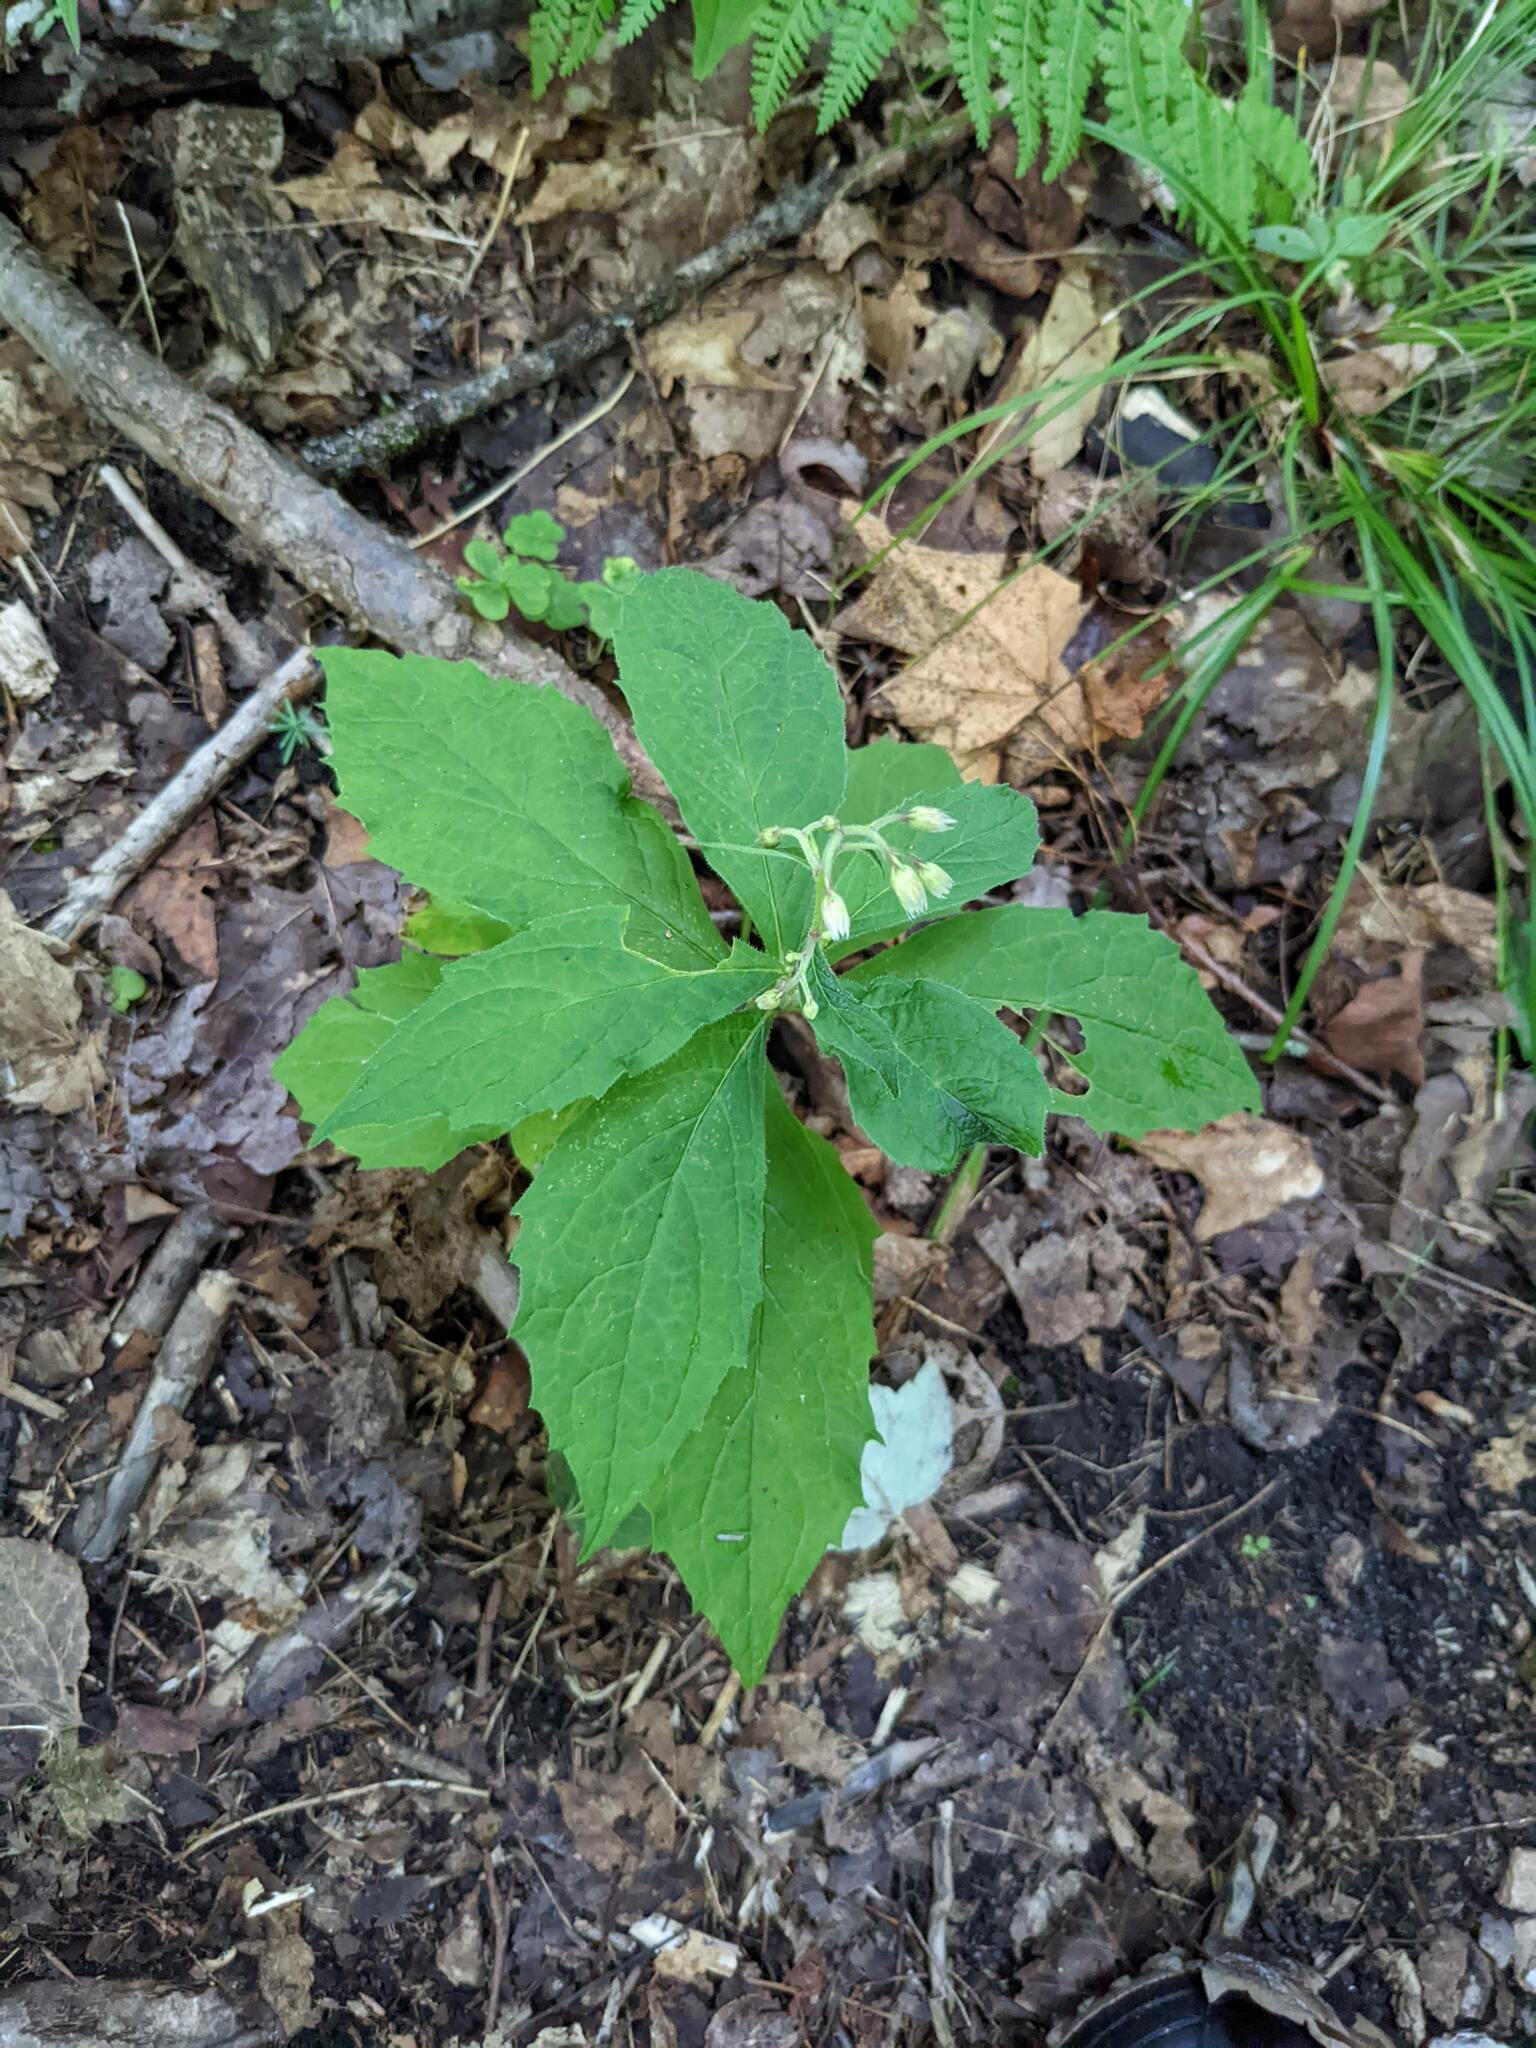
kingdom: Plantae
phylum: Tracheophyta
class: Magnoliopsida
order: Asterales
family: Asteraceae
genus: Oclemena
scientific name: Oclemena acuminata
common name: Mountain aster
